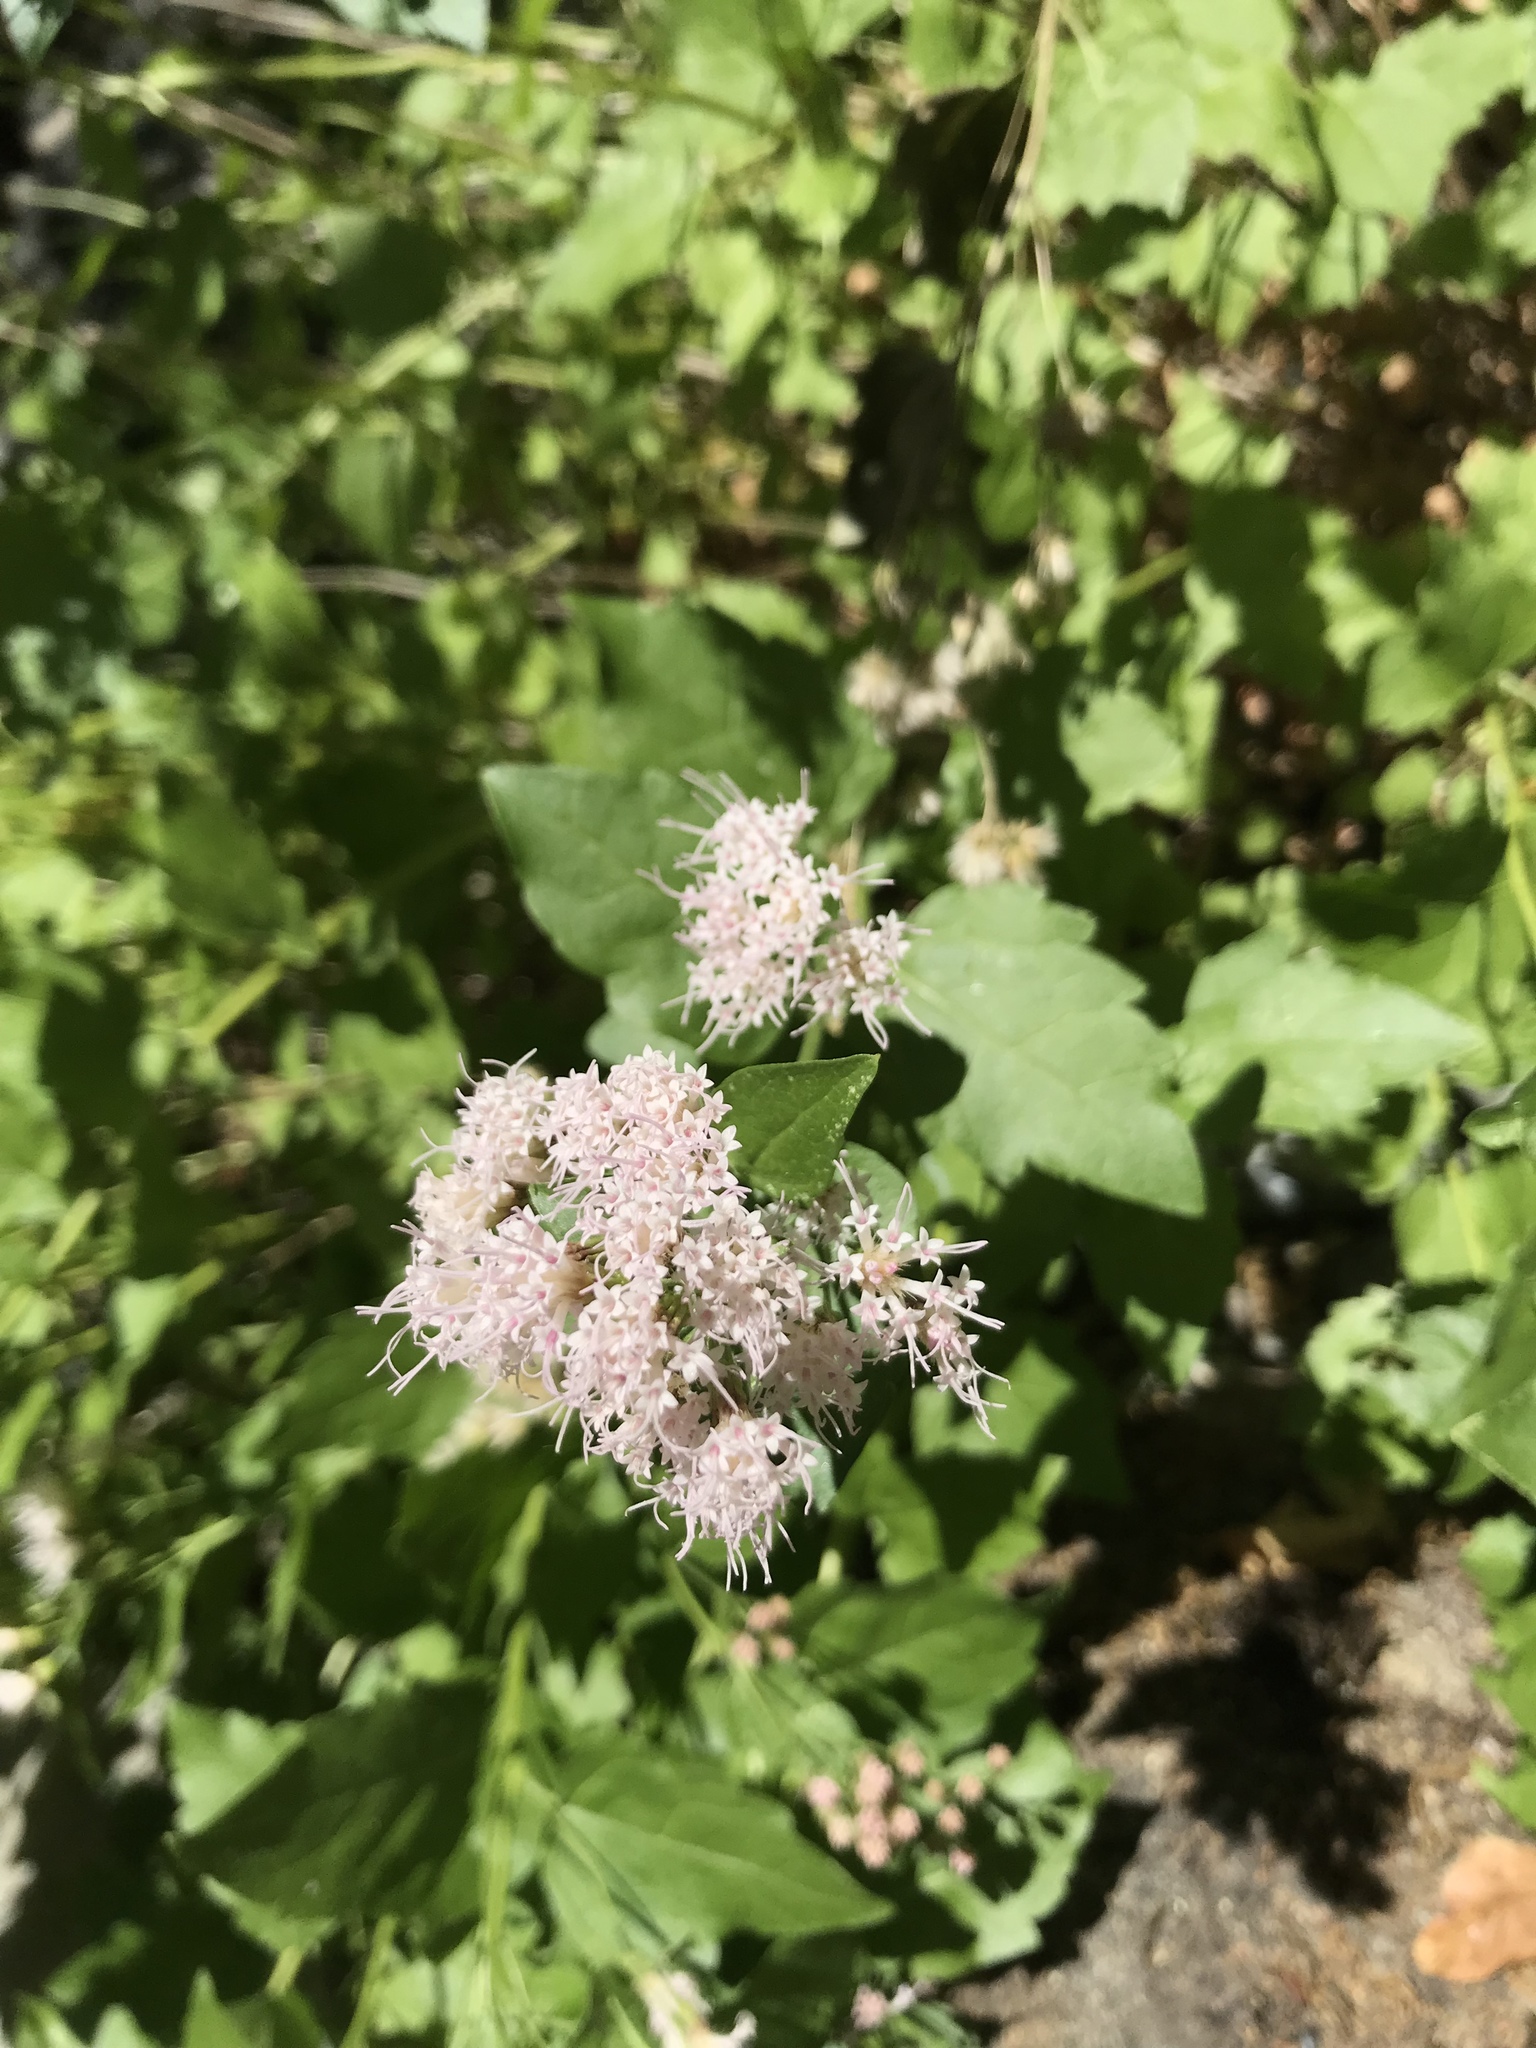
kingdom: Plantae
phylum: Tracheophyta
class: Magnoliopsida
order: Asterales
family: Asteraceae
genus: Ageratina
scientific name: Ageratina occidentalis
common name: Western snakeroot
